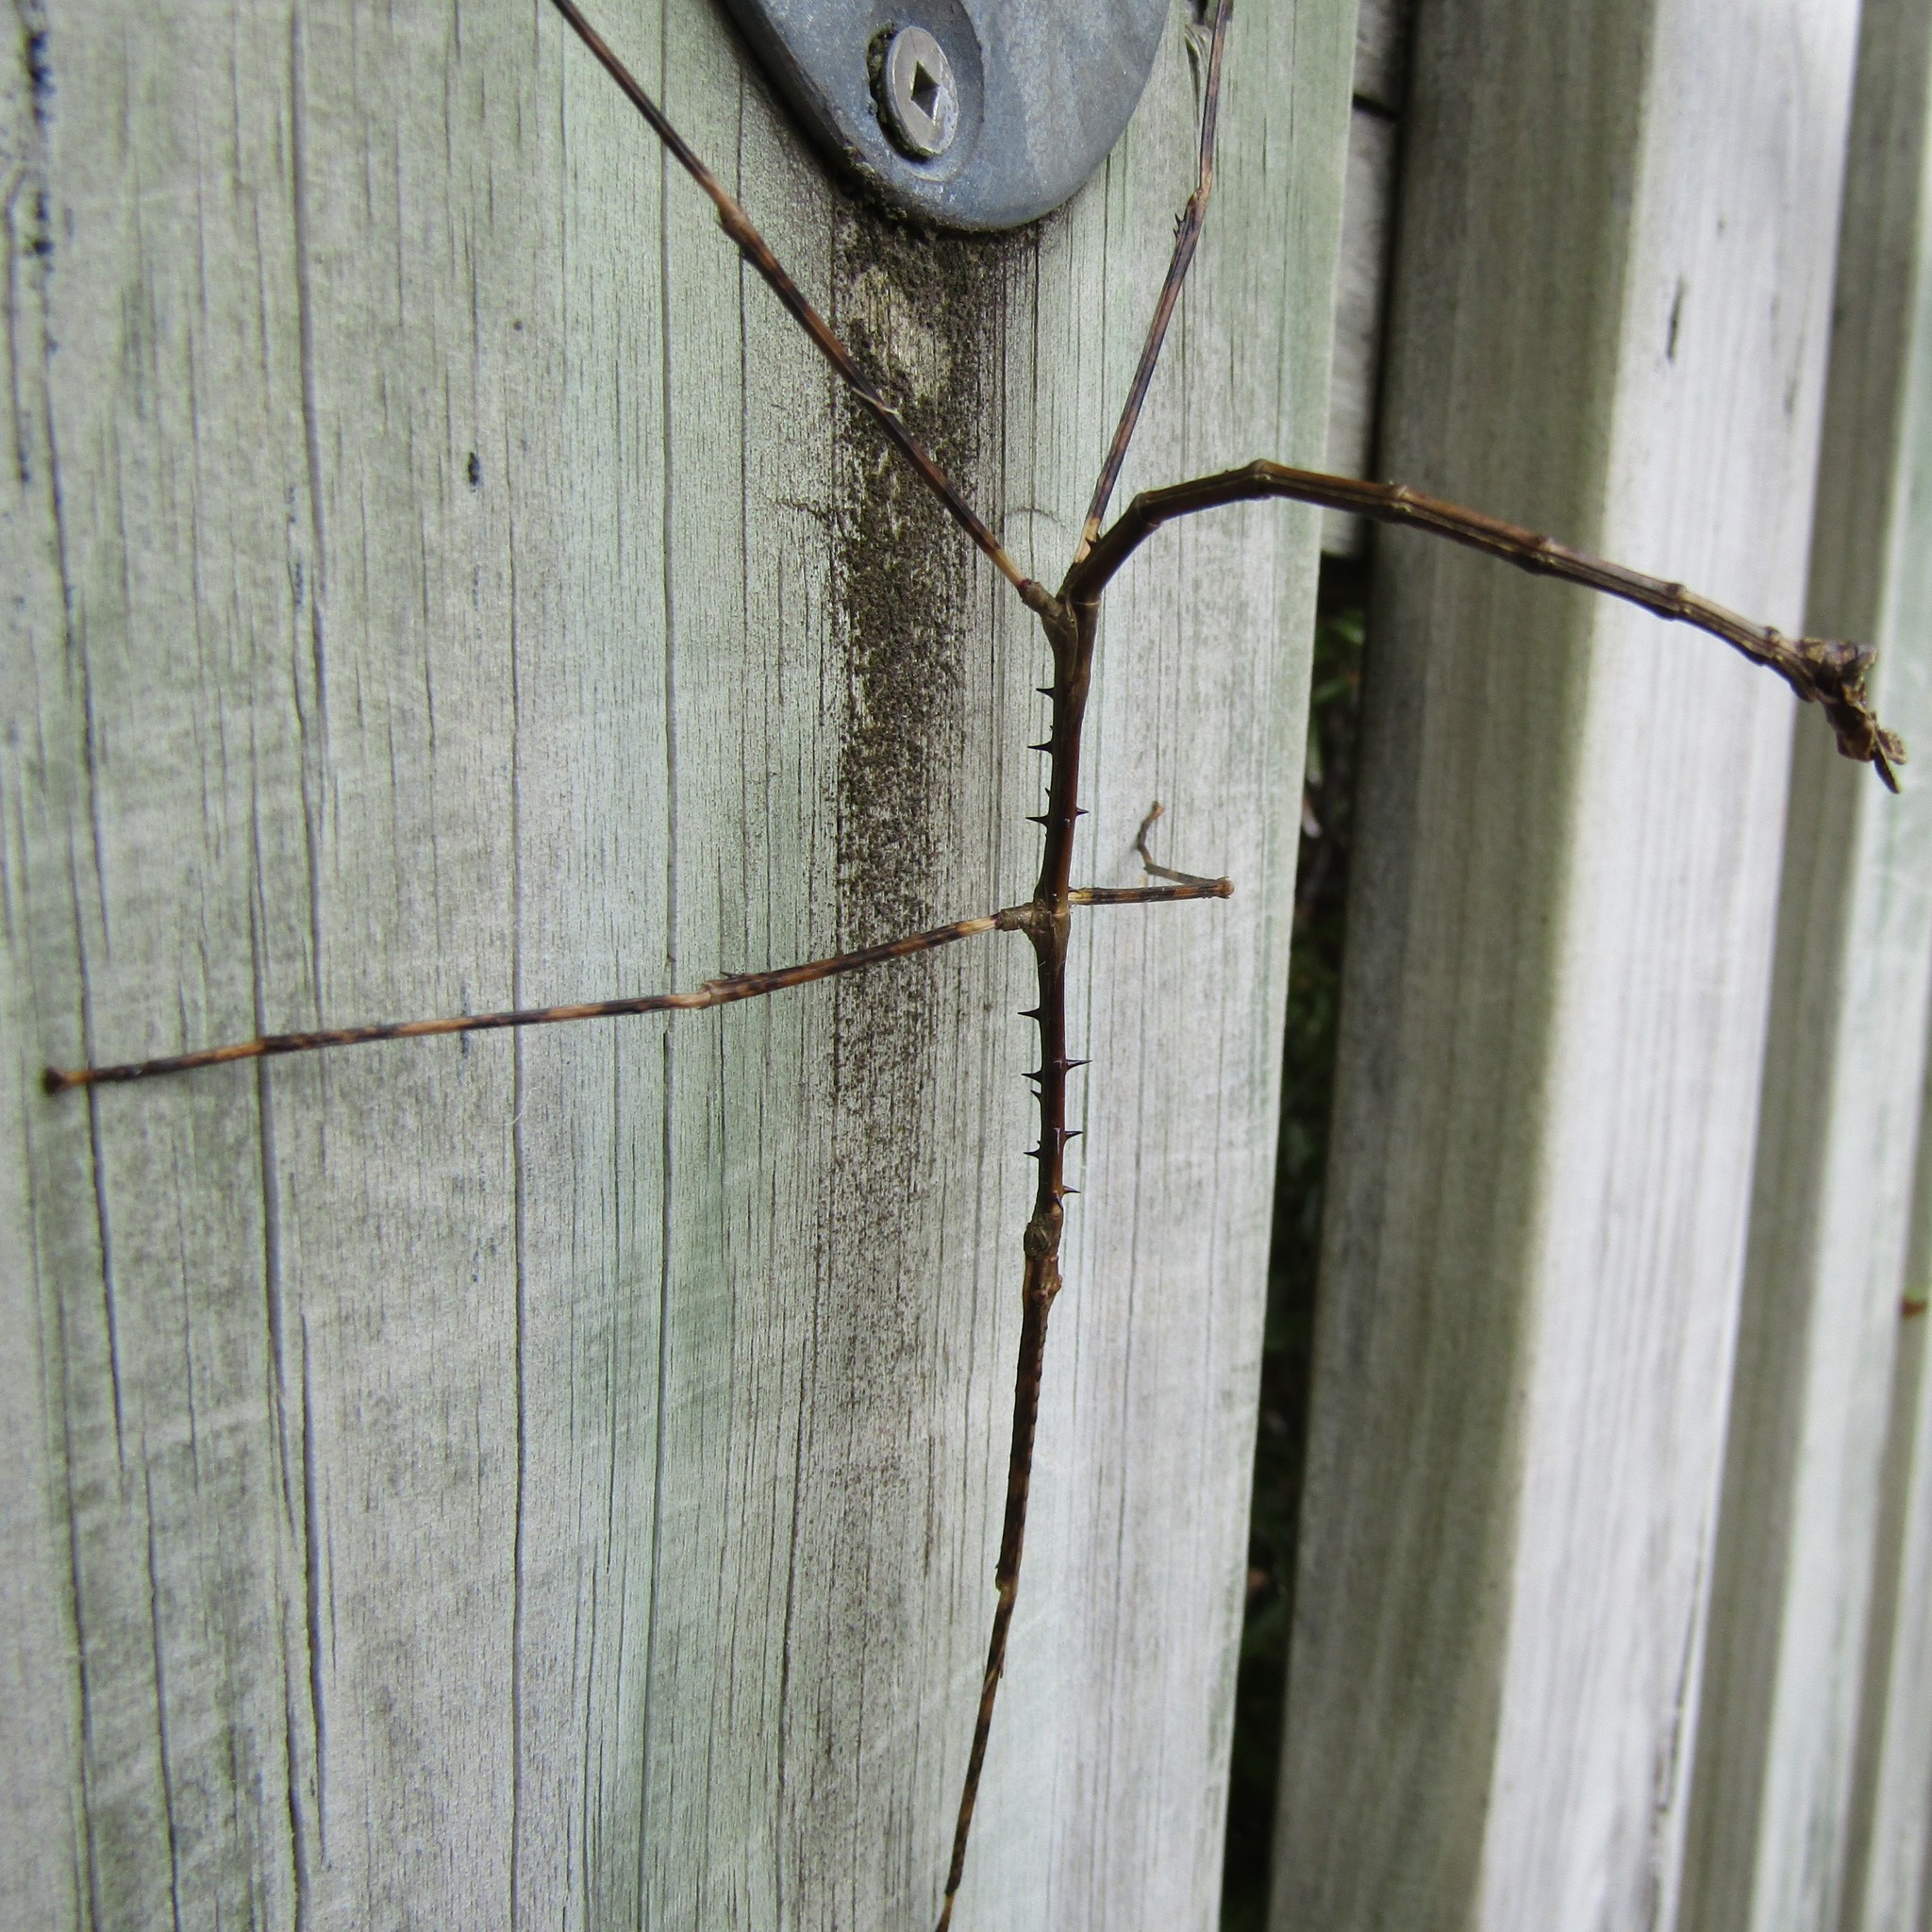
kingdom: Animalia
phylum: Arthropoda
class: Insecta
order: Phasmida
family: Phasmatidae
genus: Argosarchus
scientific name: Argosarchus horridus
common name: Bristly stick insect
